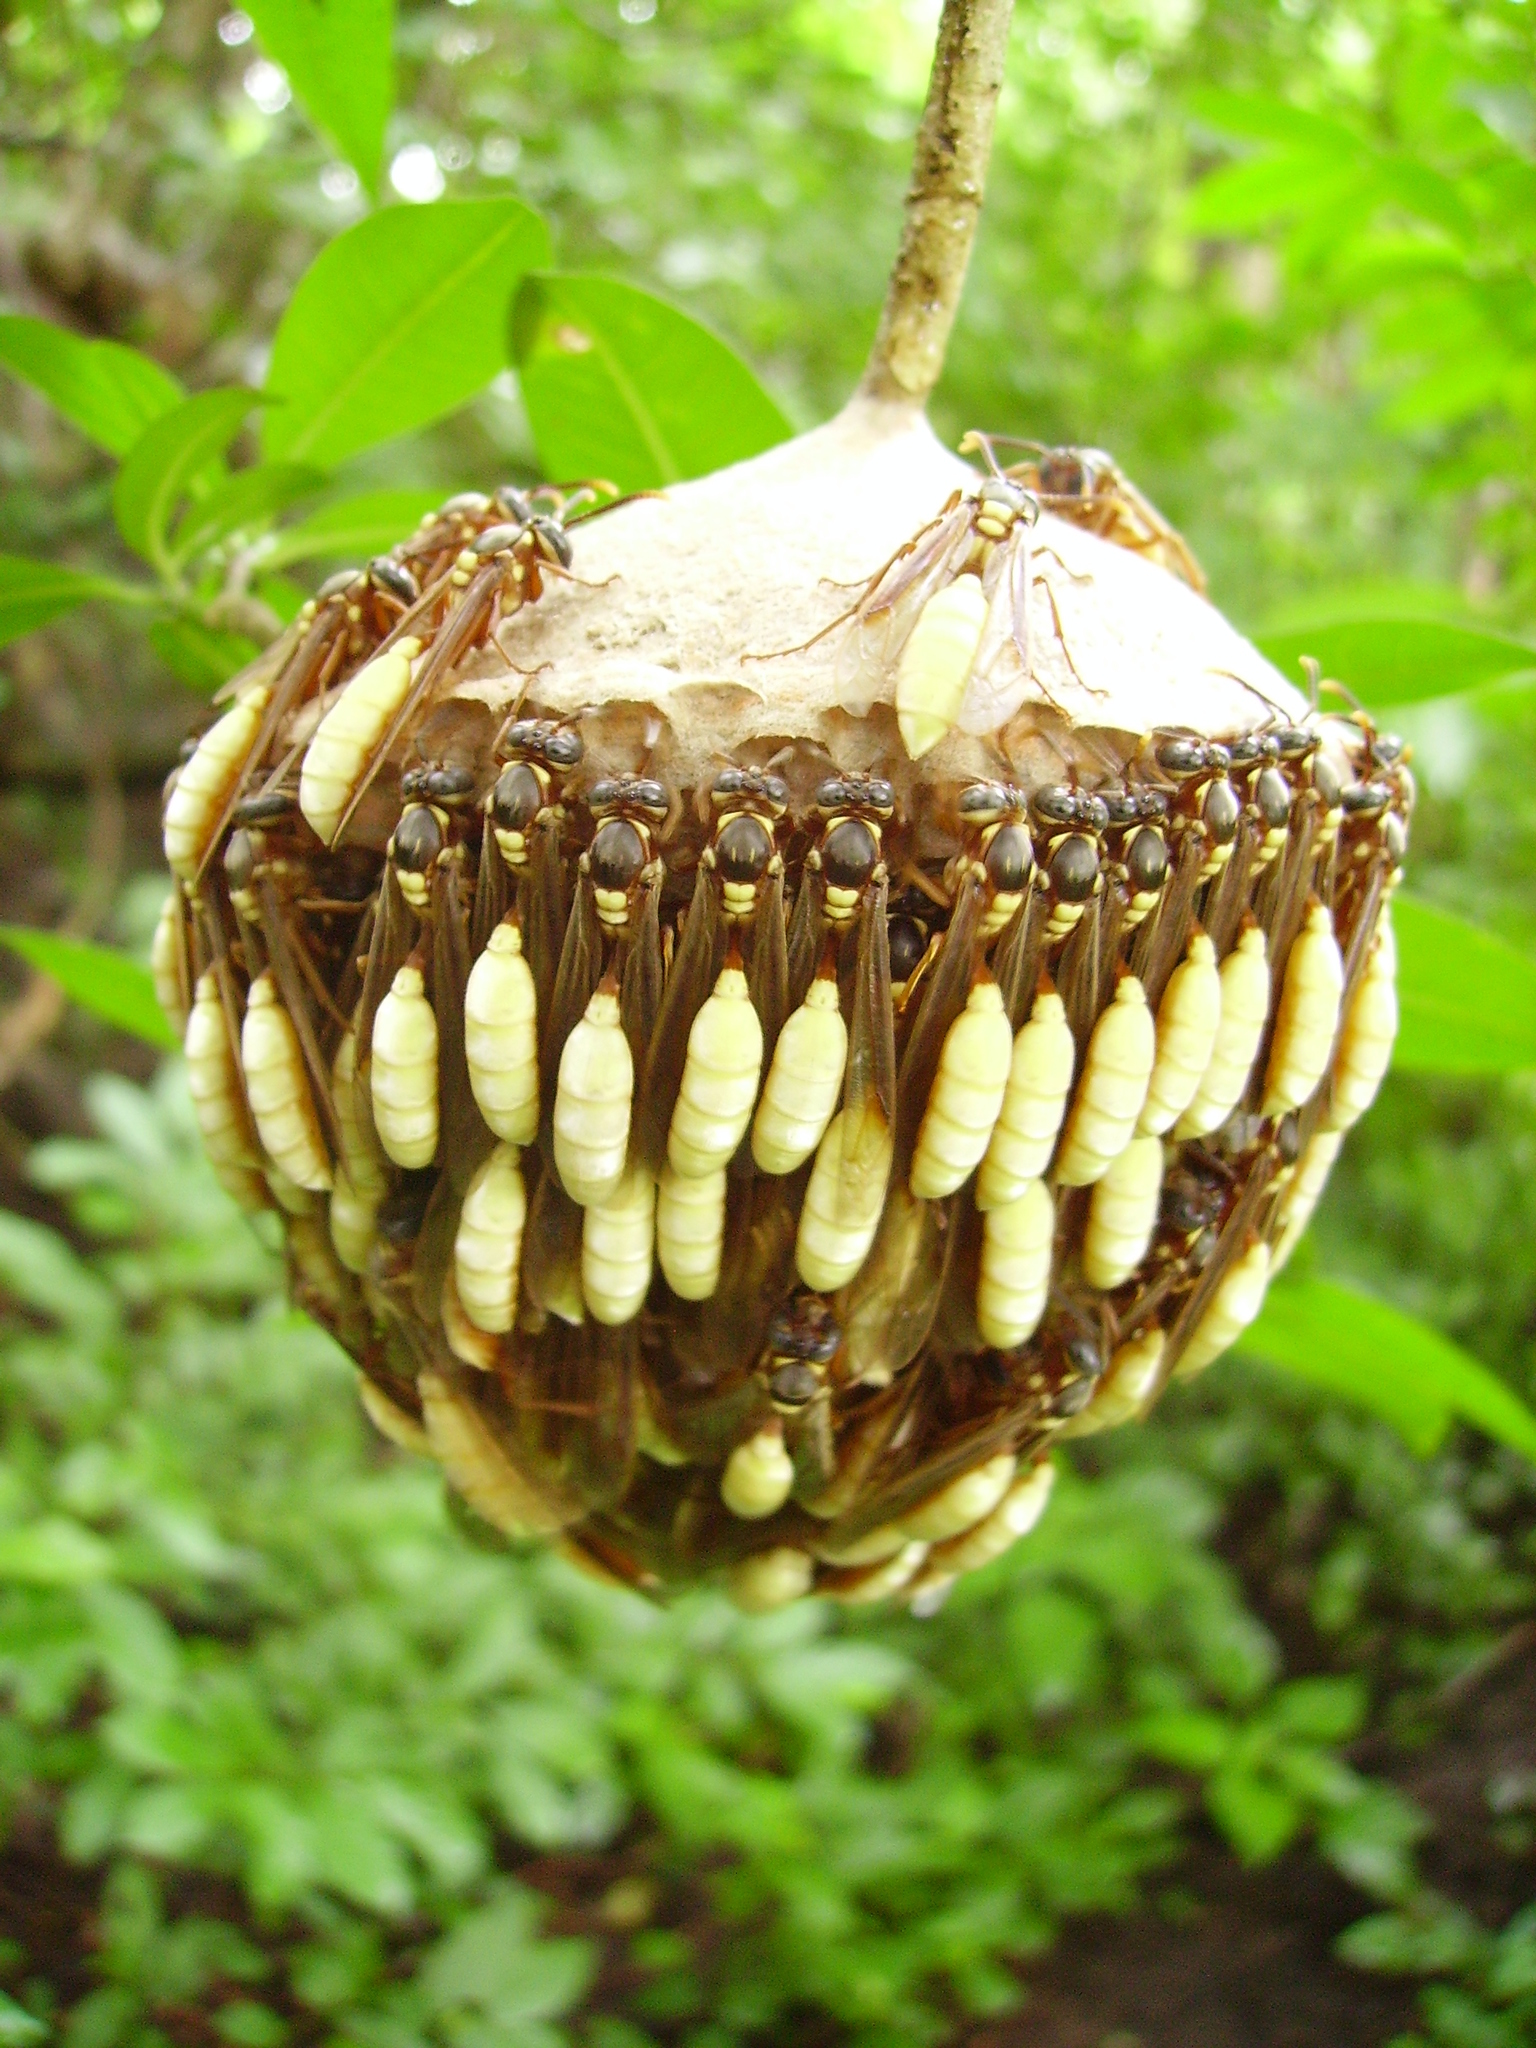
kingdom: Animalia
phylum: Arthropoda
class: Insecta
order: Hymenoptera
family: Vespidae
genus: Apoica
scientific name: Apoica pallens
